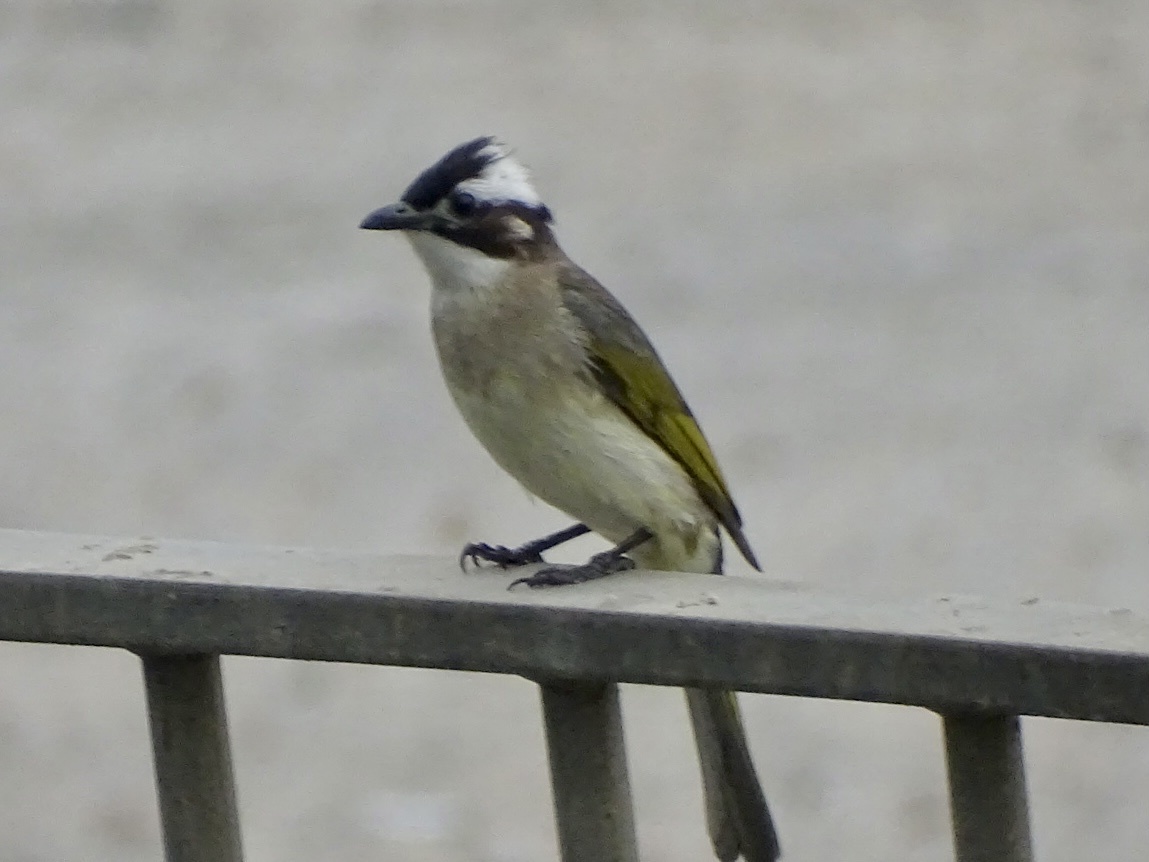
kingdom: Animalia
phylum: Chordata
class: Aves
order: Passeriformes
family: Pycnonotidae
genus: Pycnonotus
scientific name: Pycnonotus sinensis
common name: Light-vented bulbul
